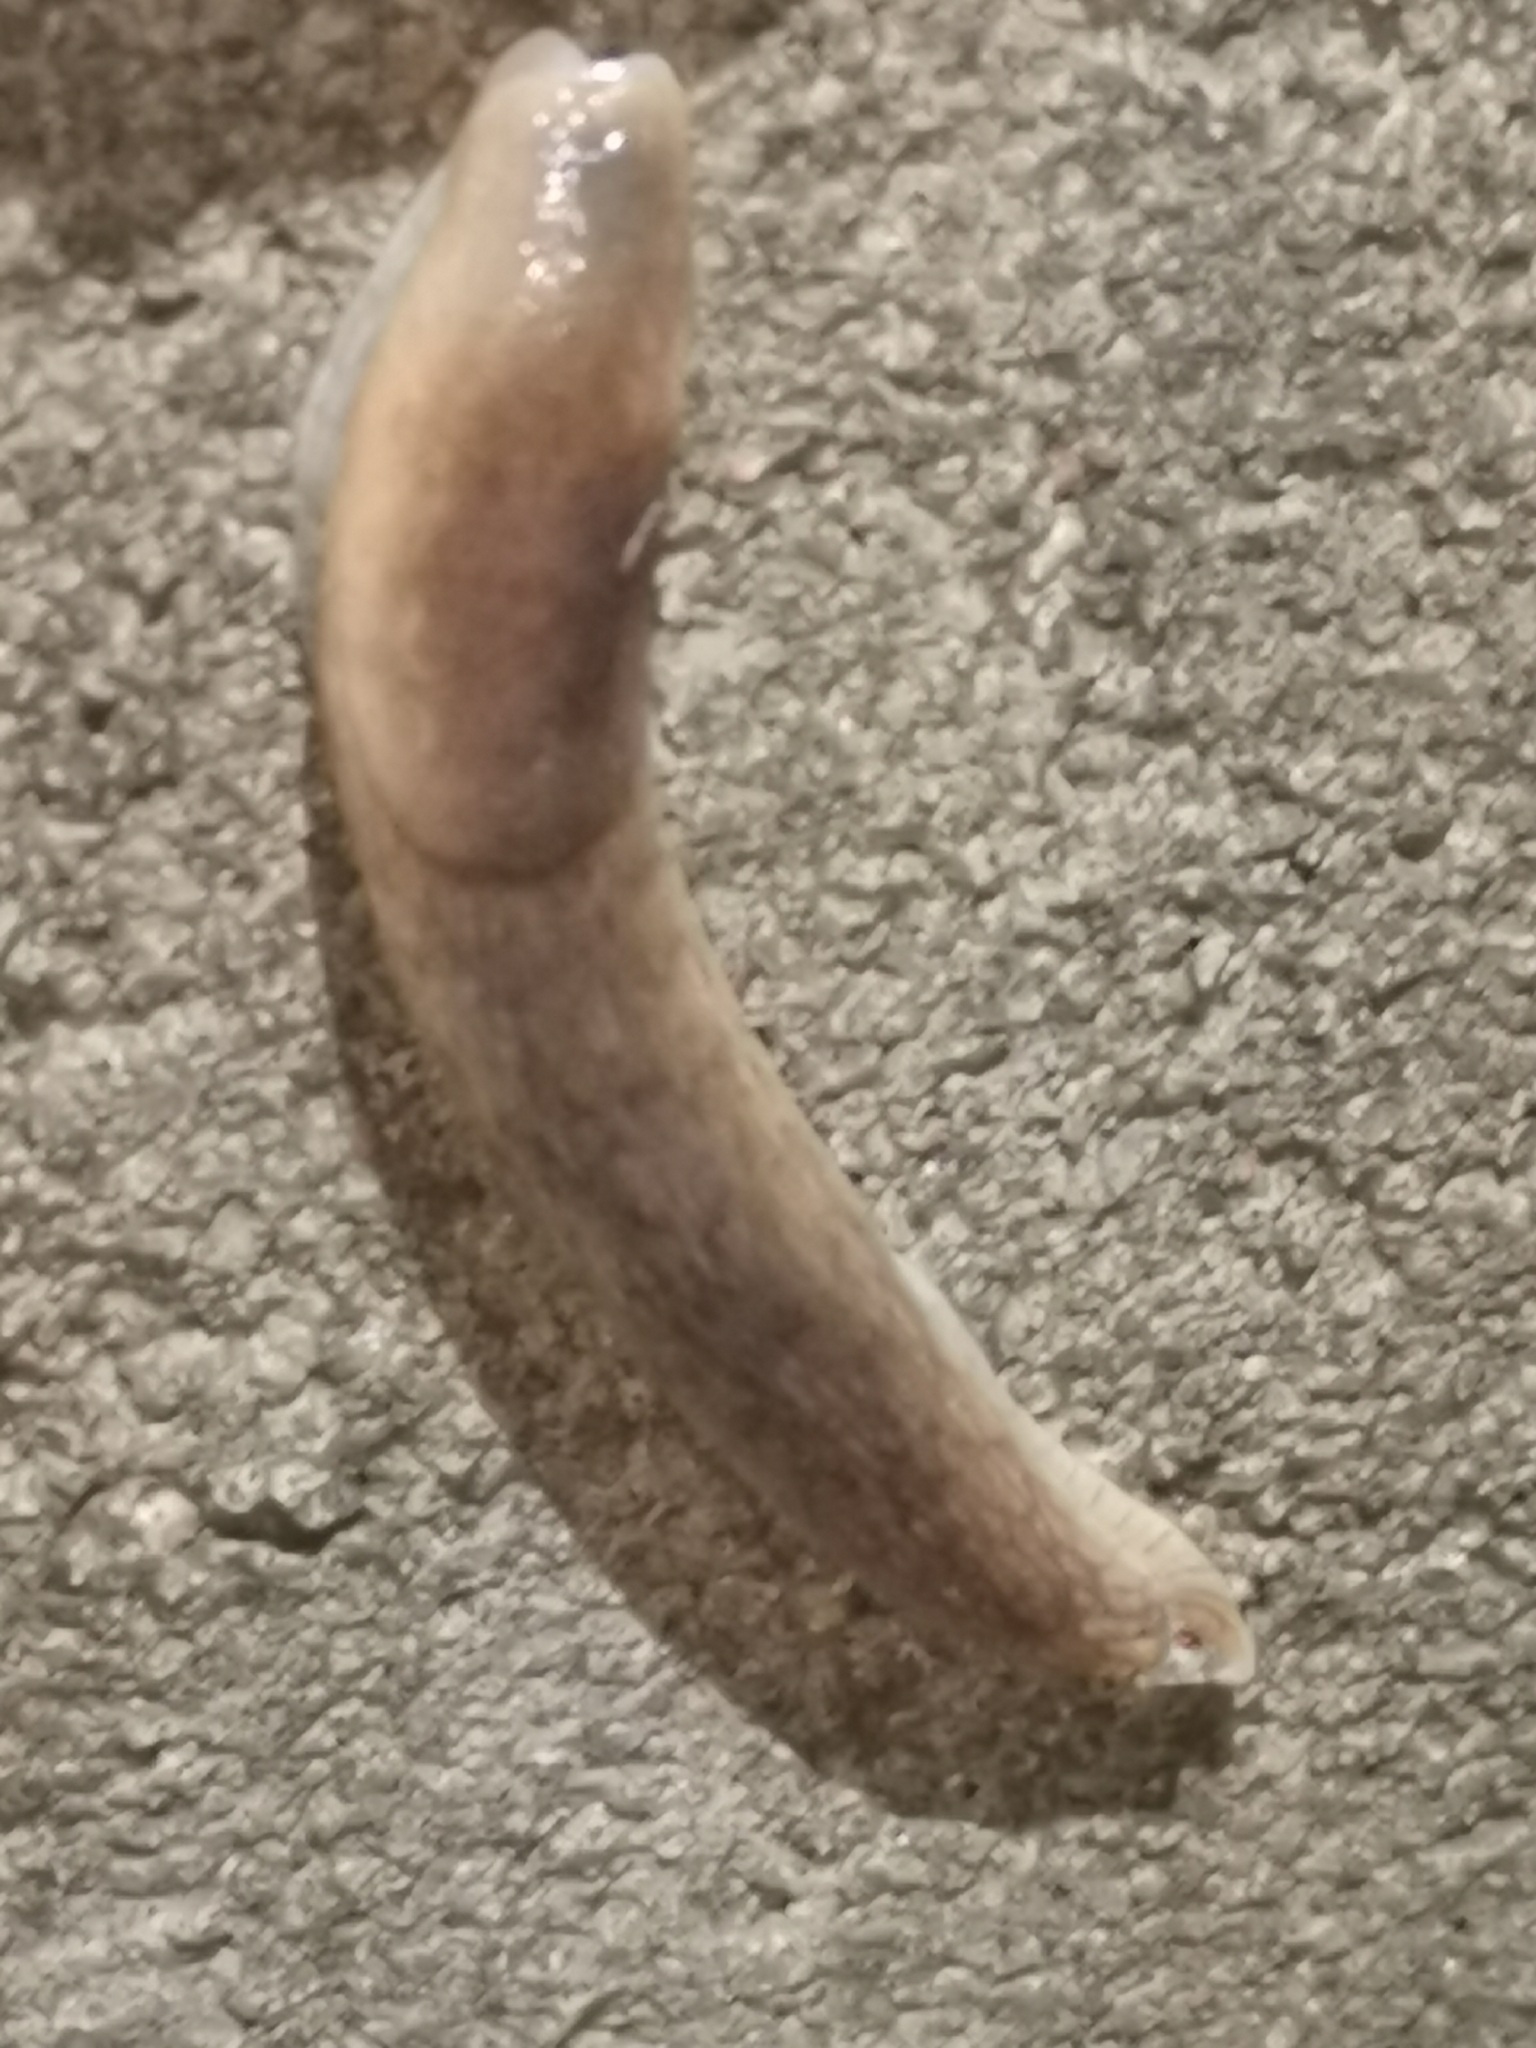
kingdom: Animalia
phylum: Mollusca
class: Gastropoda
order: Stylommatophora
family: Arionidae
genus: Arion
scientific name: Arion fuscus
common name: Northern dusky slug
